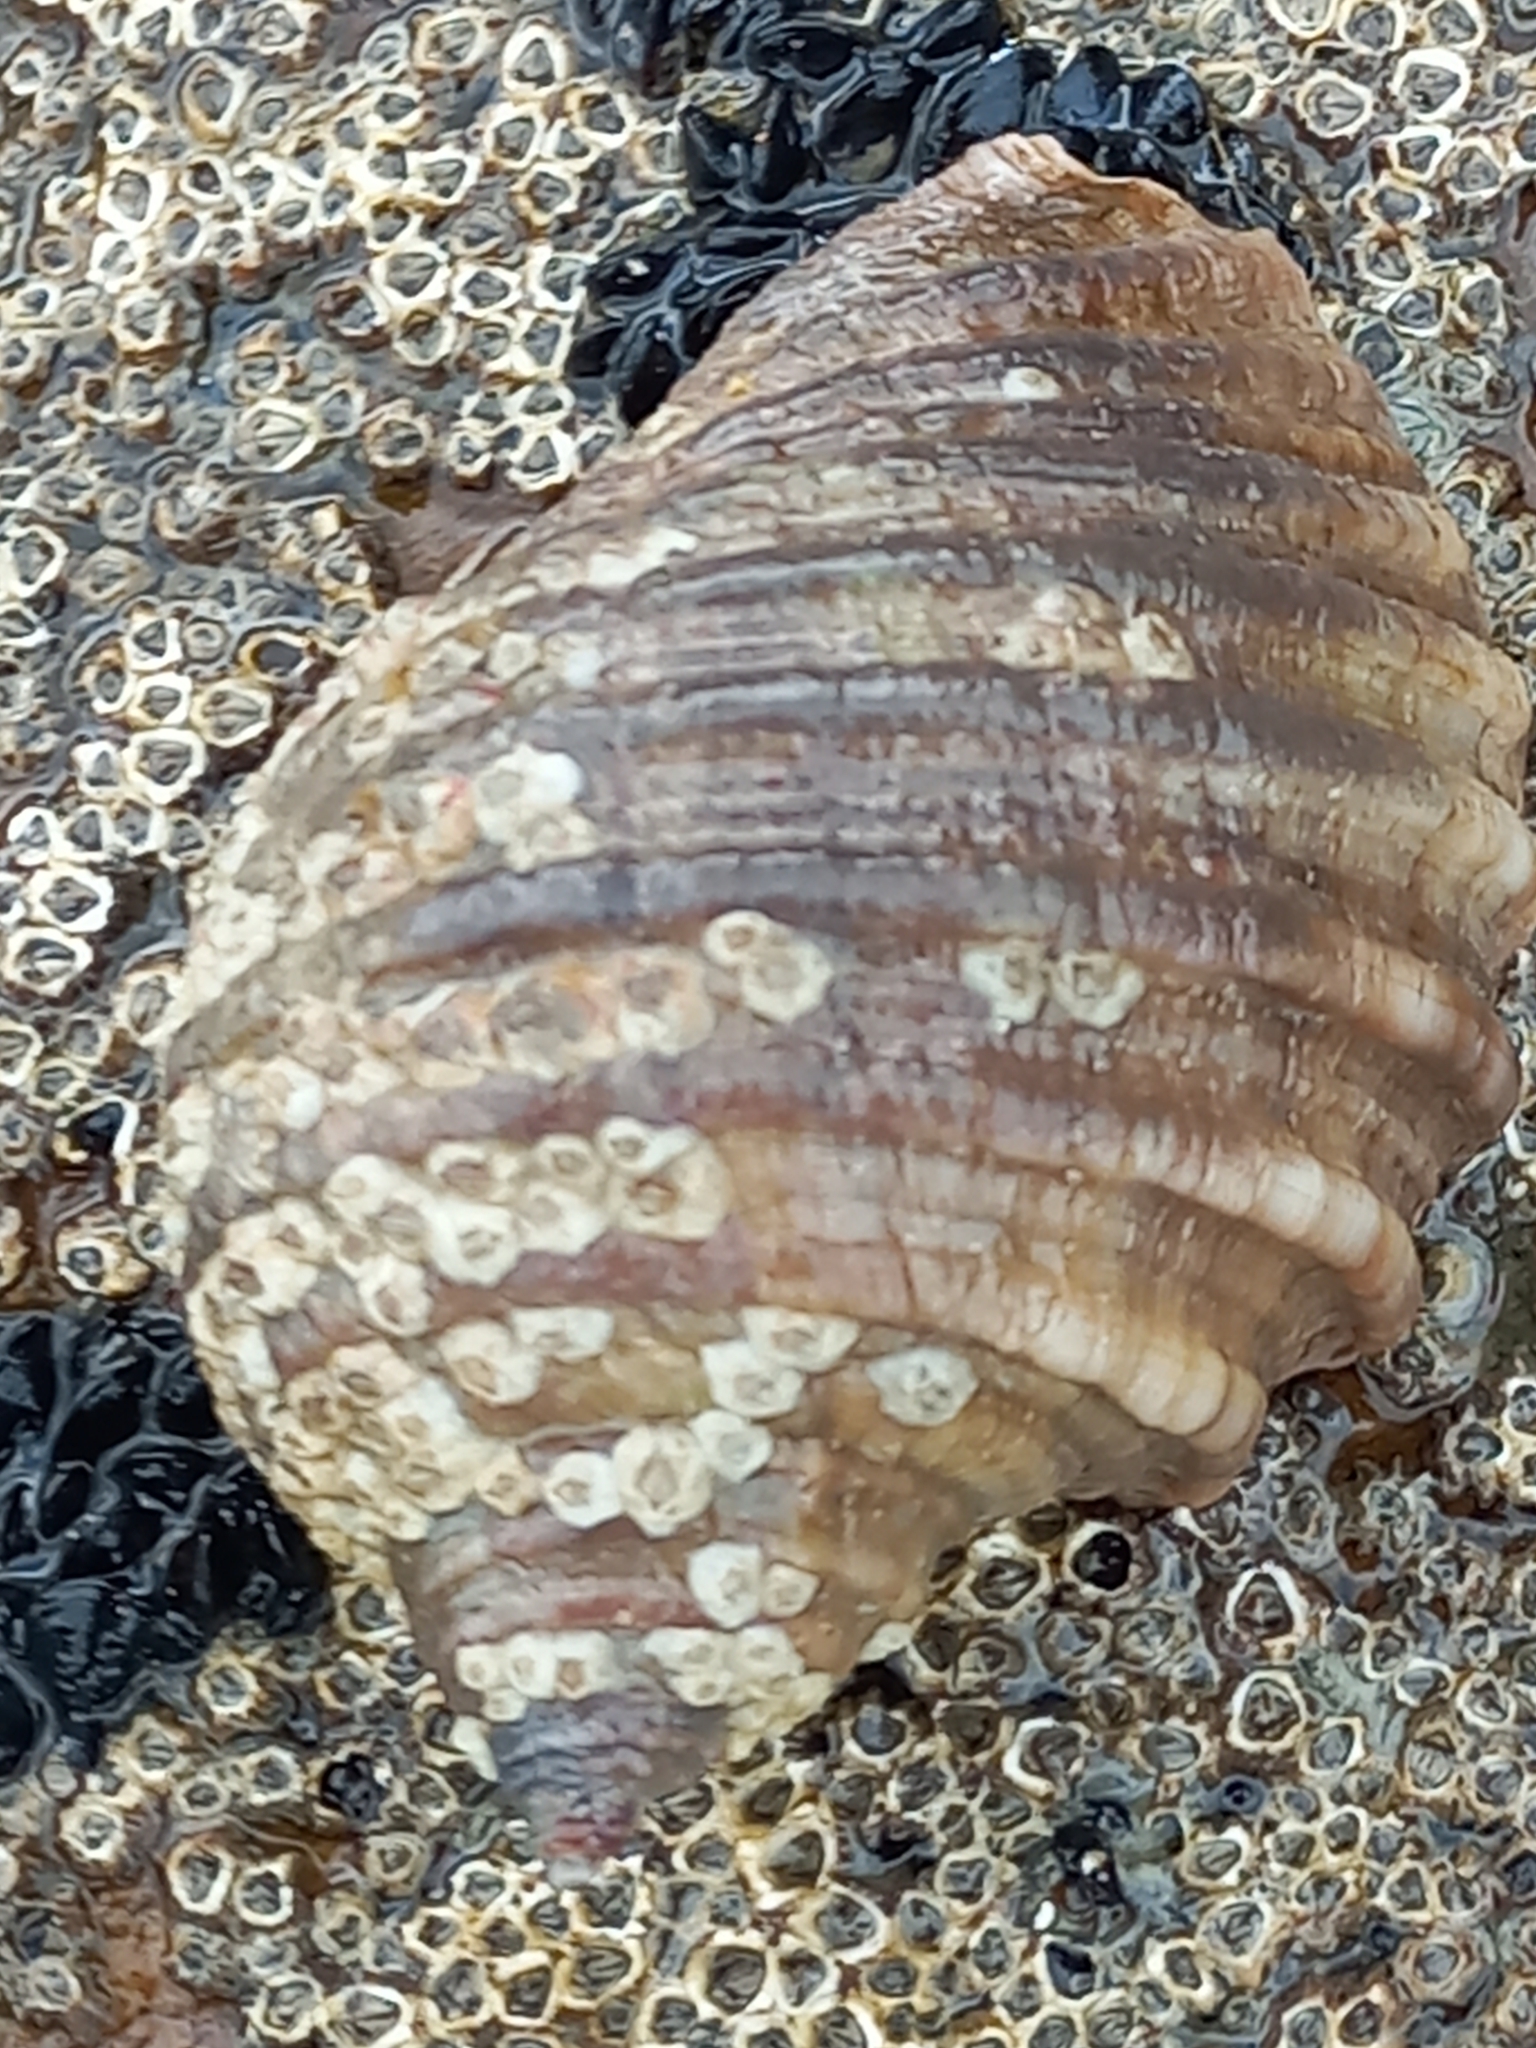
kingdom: Animalia
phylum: Mollusca
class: Gastropoda
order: Neogastropoda
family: Muricidae
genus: Dicathais
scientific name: Dicathais orbita
